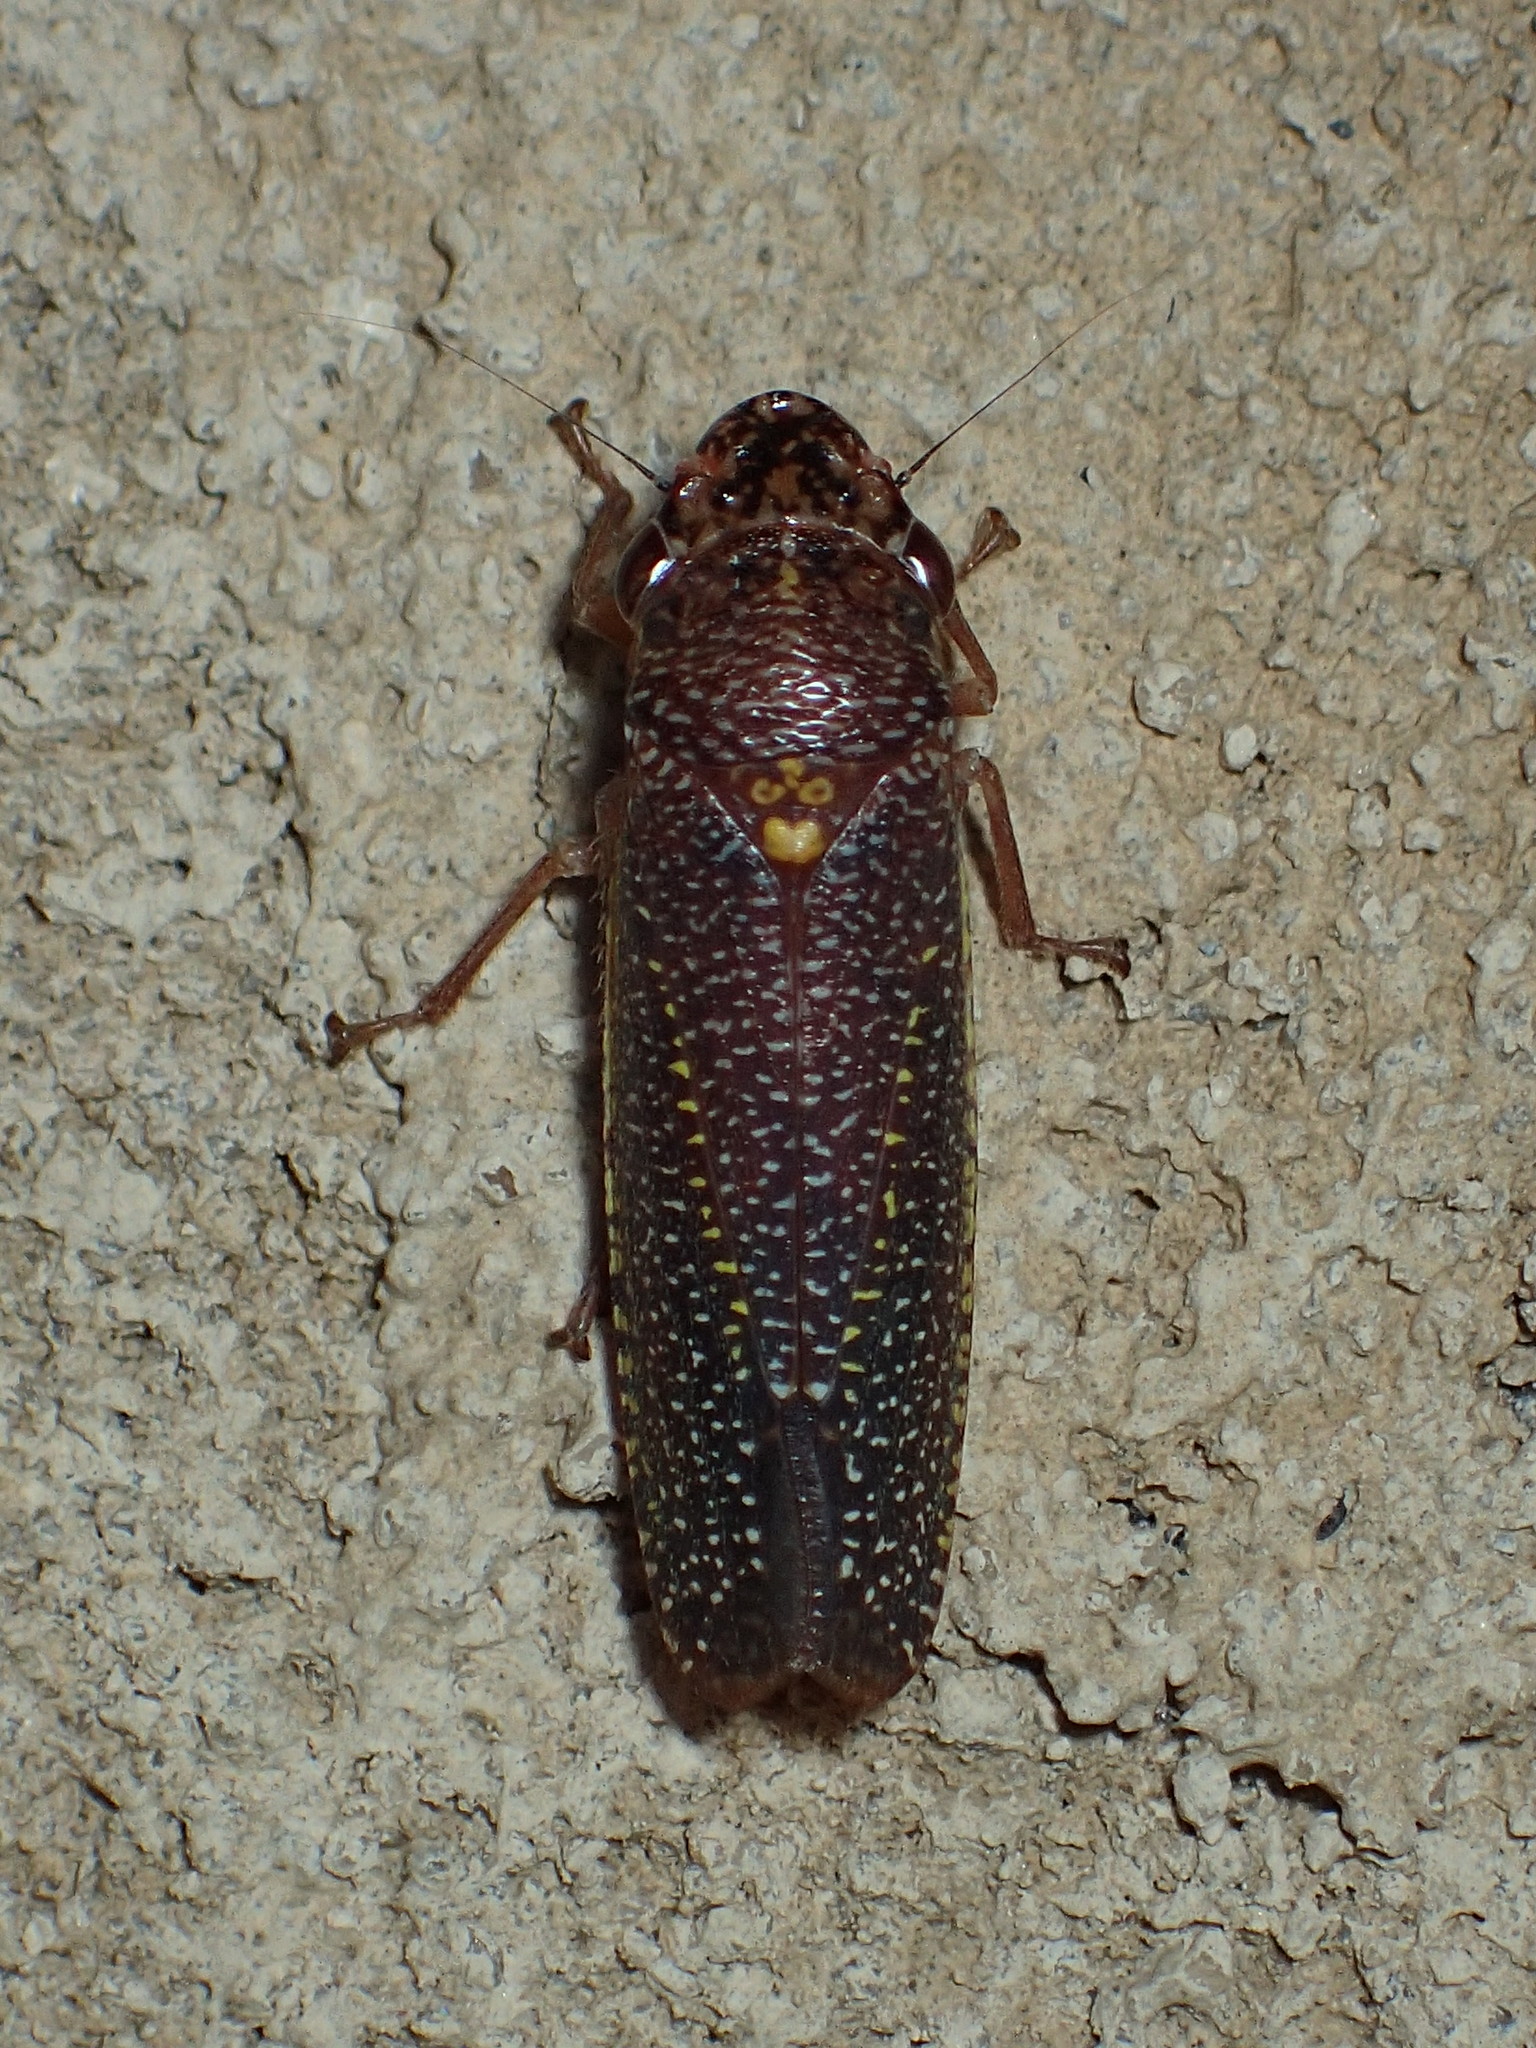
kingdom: Animalia
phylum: Arthropoda
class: Insecta
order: Hemiptera
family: Cicadellidae
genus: Paraulacizes
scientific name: Paraulacizes irrorata
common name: Speckled sharpshooter
